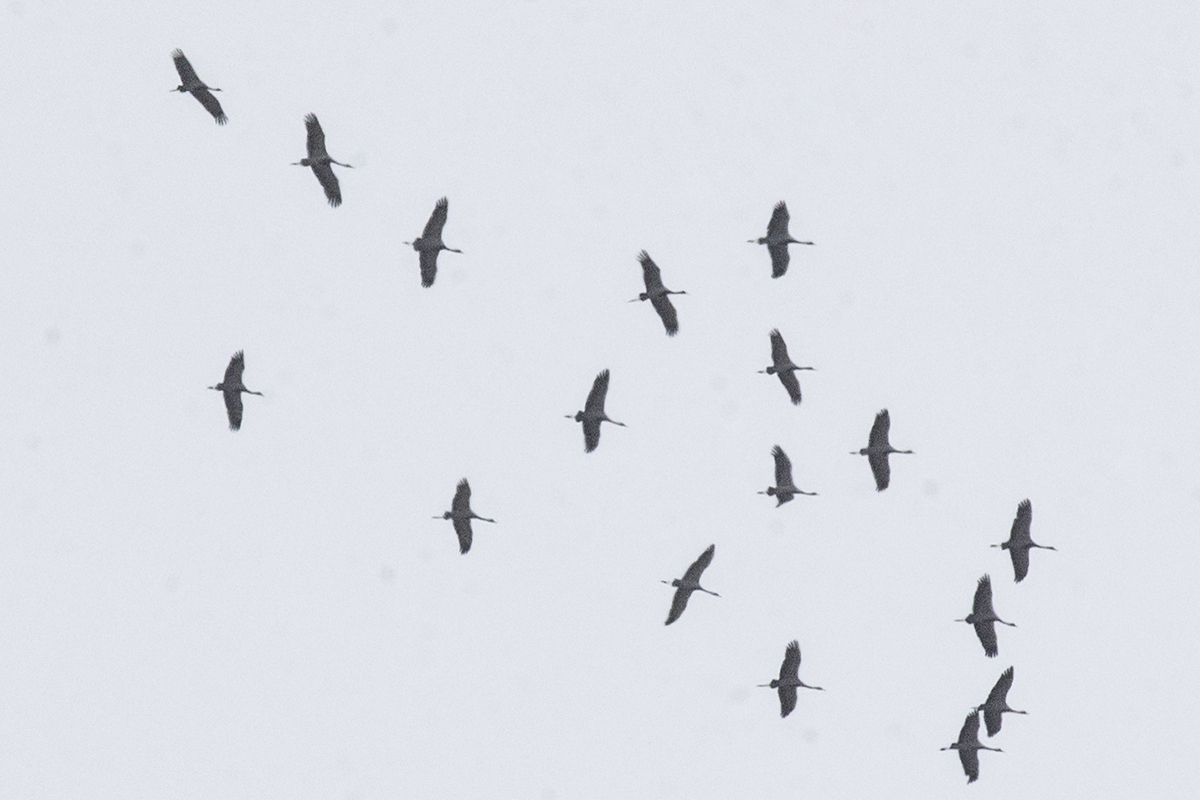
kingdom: Animalia
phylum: Chordata
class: Aves
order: Gruiformes
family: Gruidae
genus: Anthropoides
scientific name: Anthropoides virgo
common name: Demoiselle crane
